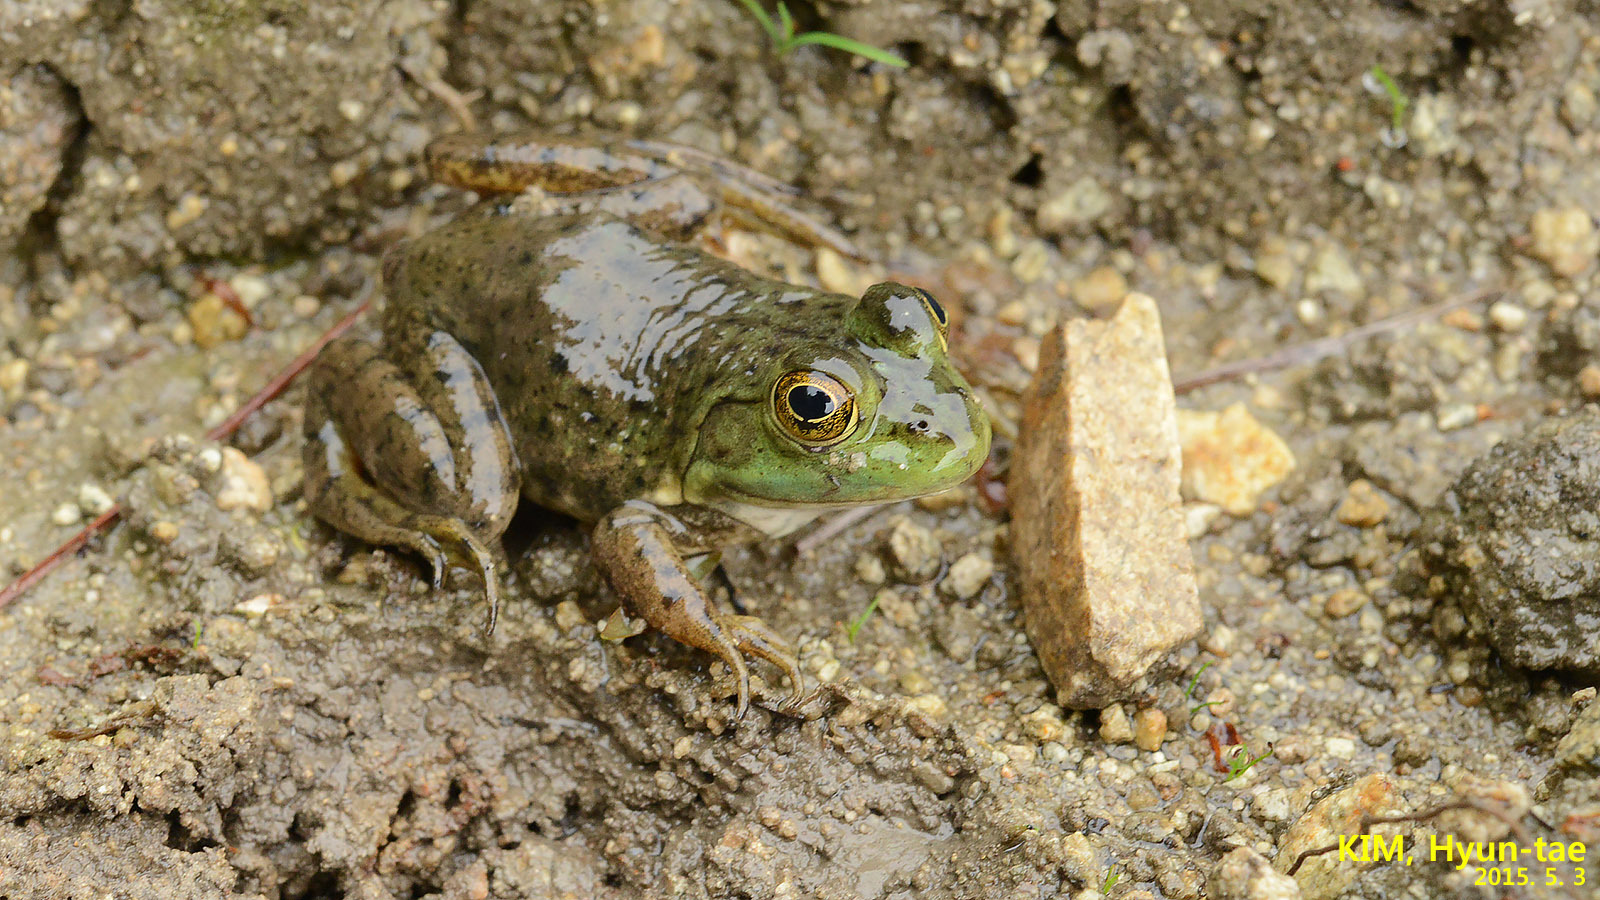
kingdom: Animalia
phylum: Chordata
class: Amphibia
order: Anura
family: Ranidae
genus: Lithobates
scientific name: Lithobates catesbeianus
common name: American bullfrog
